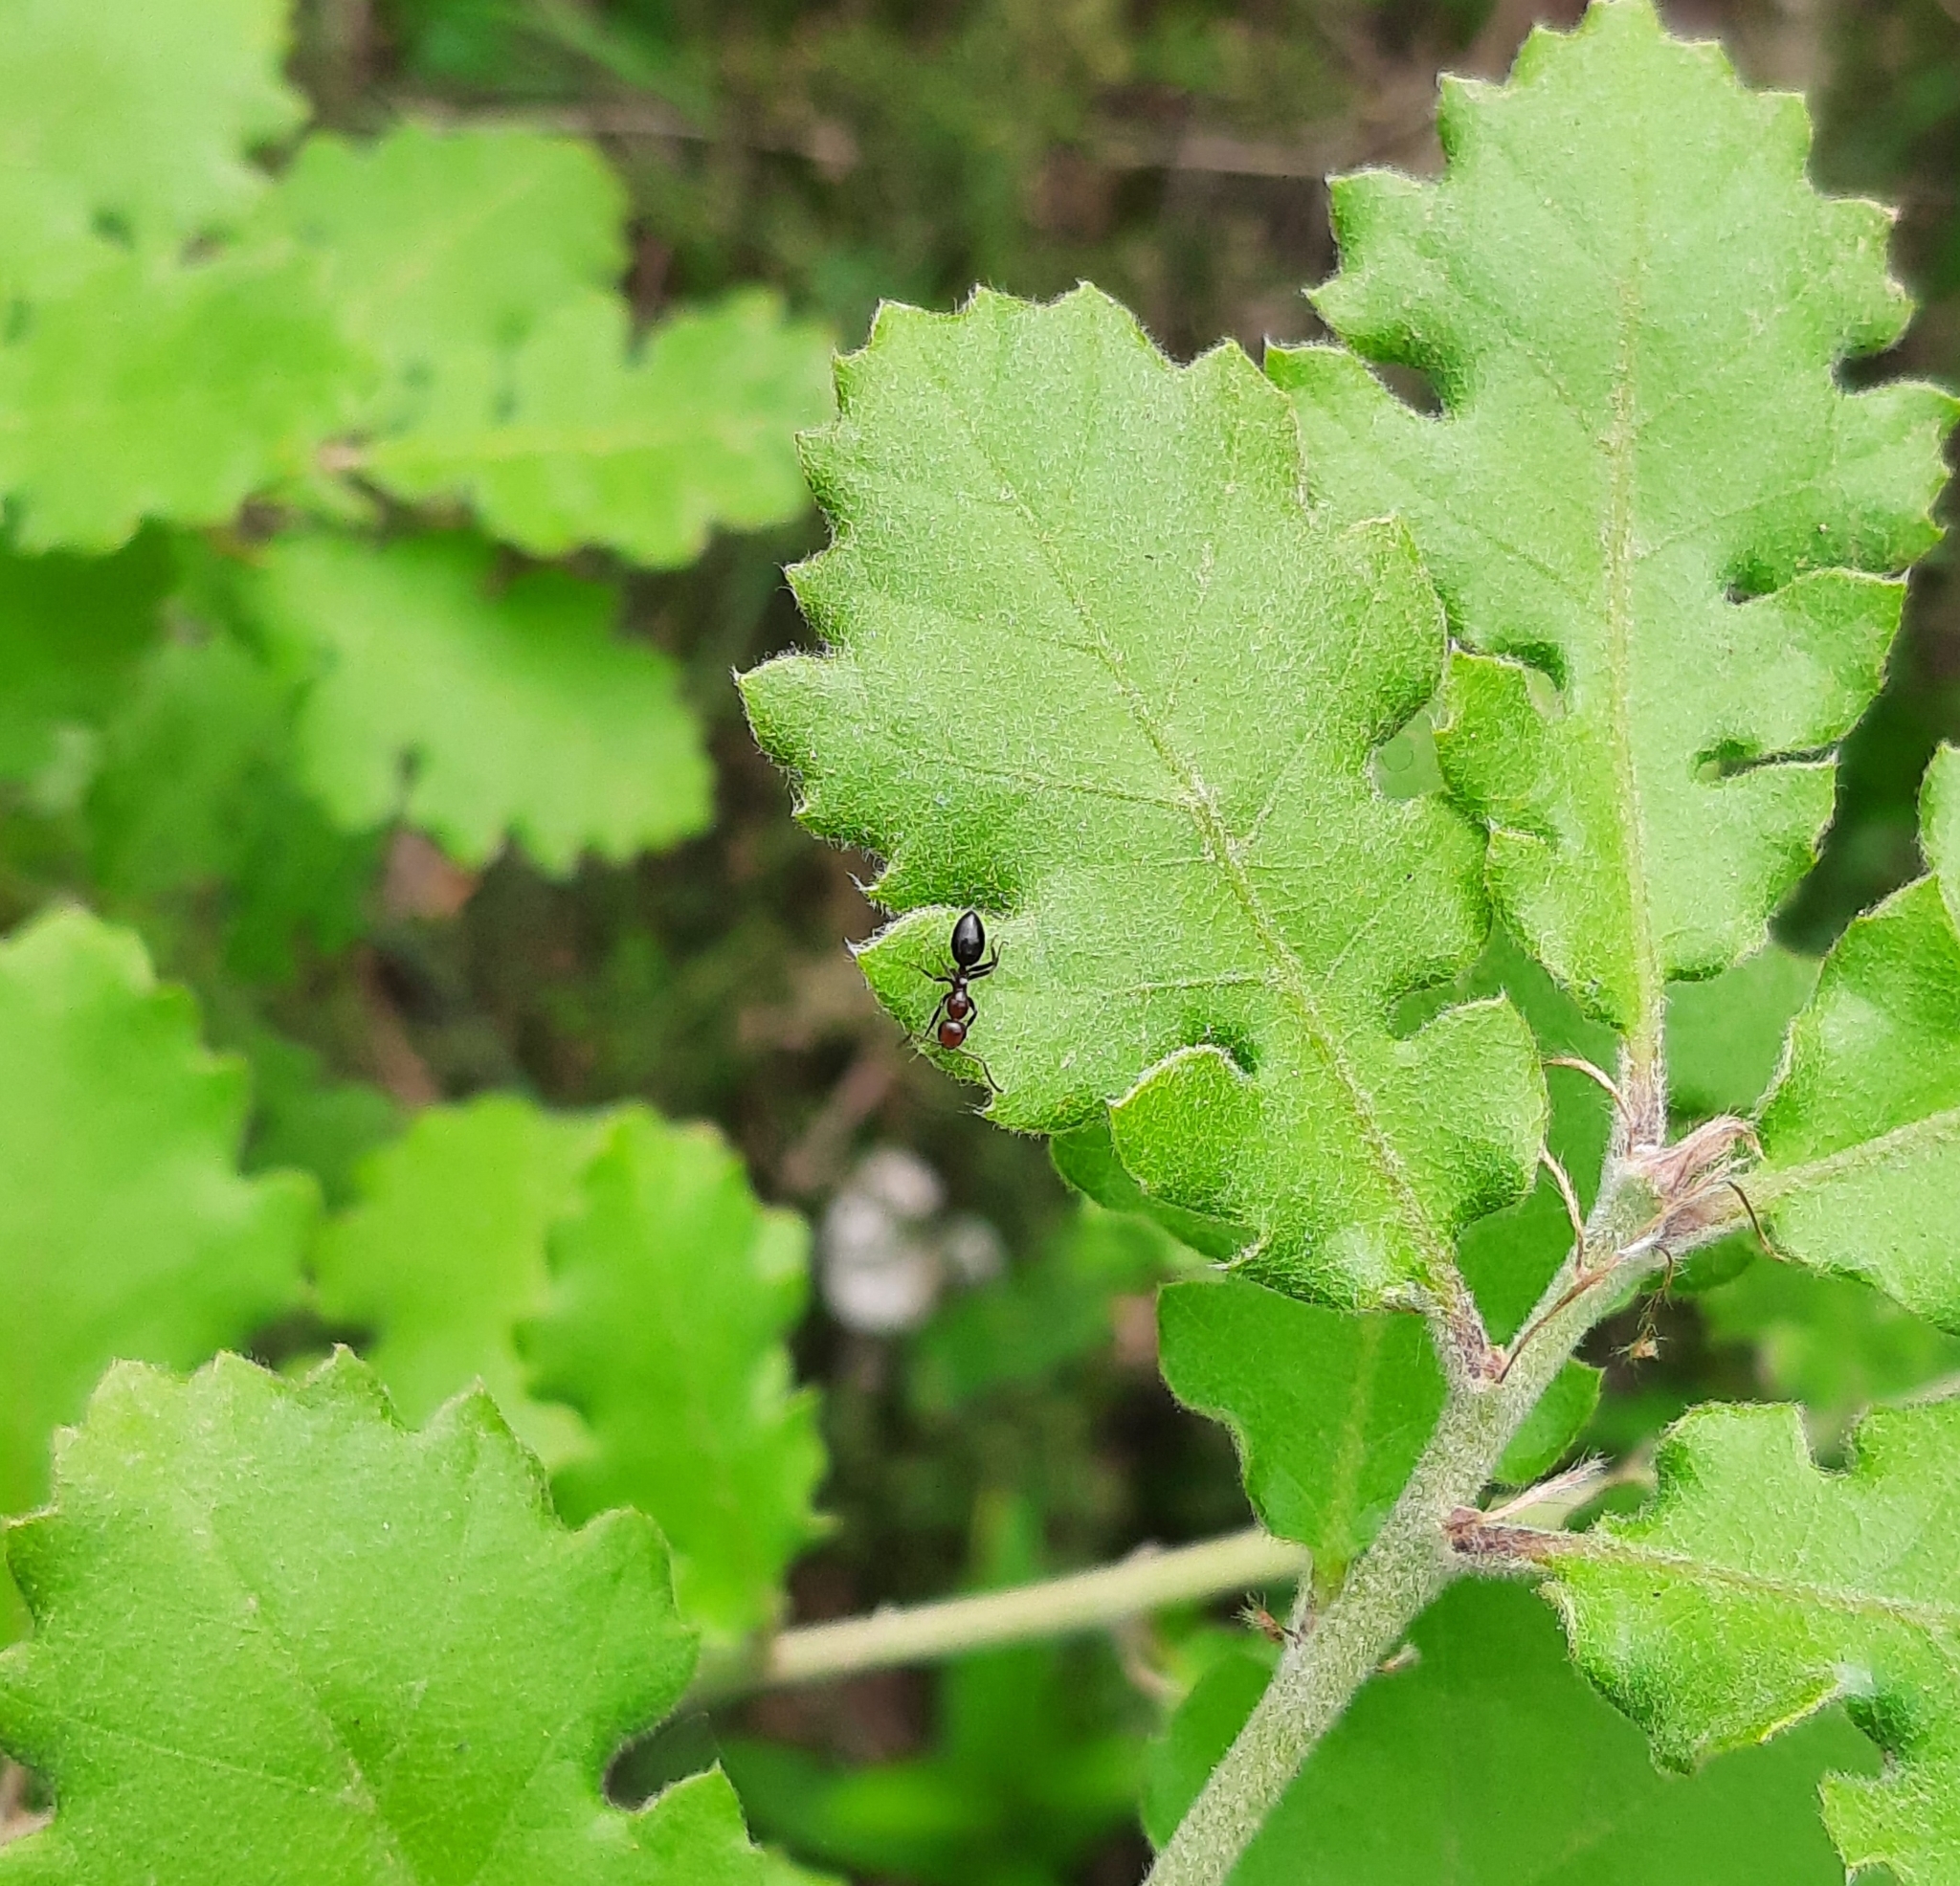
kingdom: Animalia
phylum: Arthropoda
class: Insecta
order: Hymenoptera
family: Formicidae
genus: Camponotus
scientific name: Camponotus lateralis
